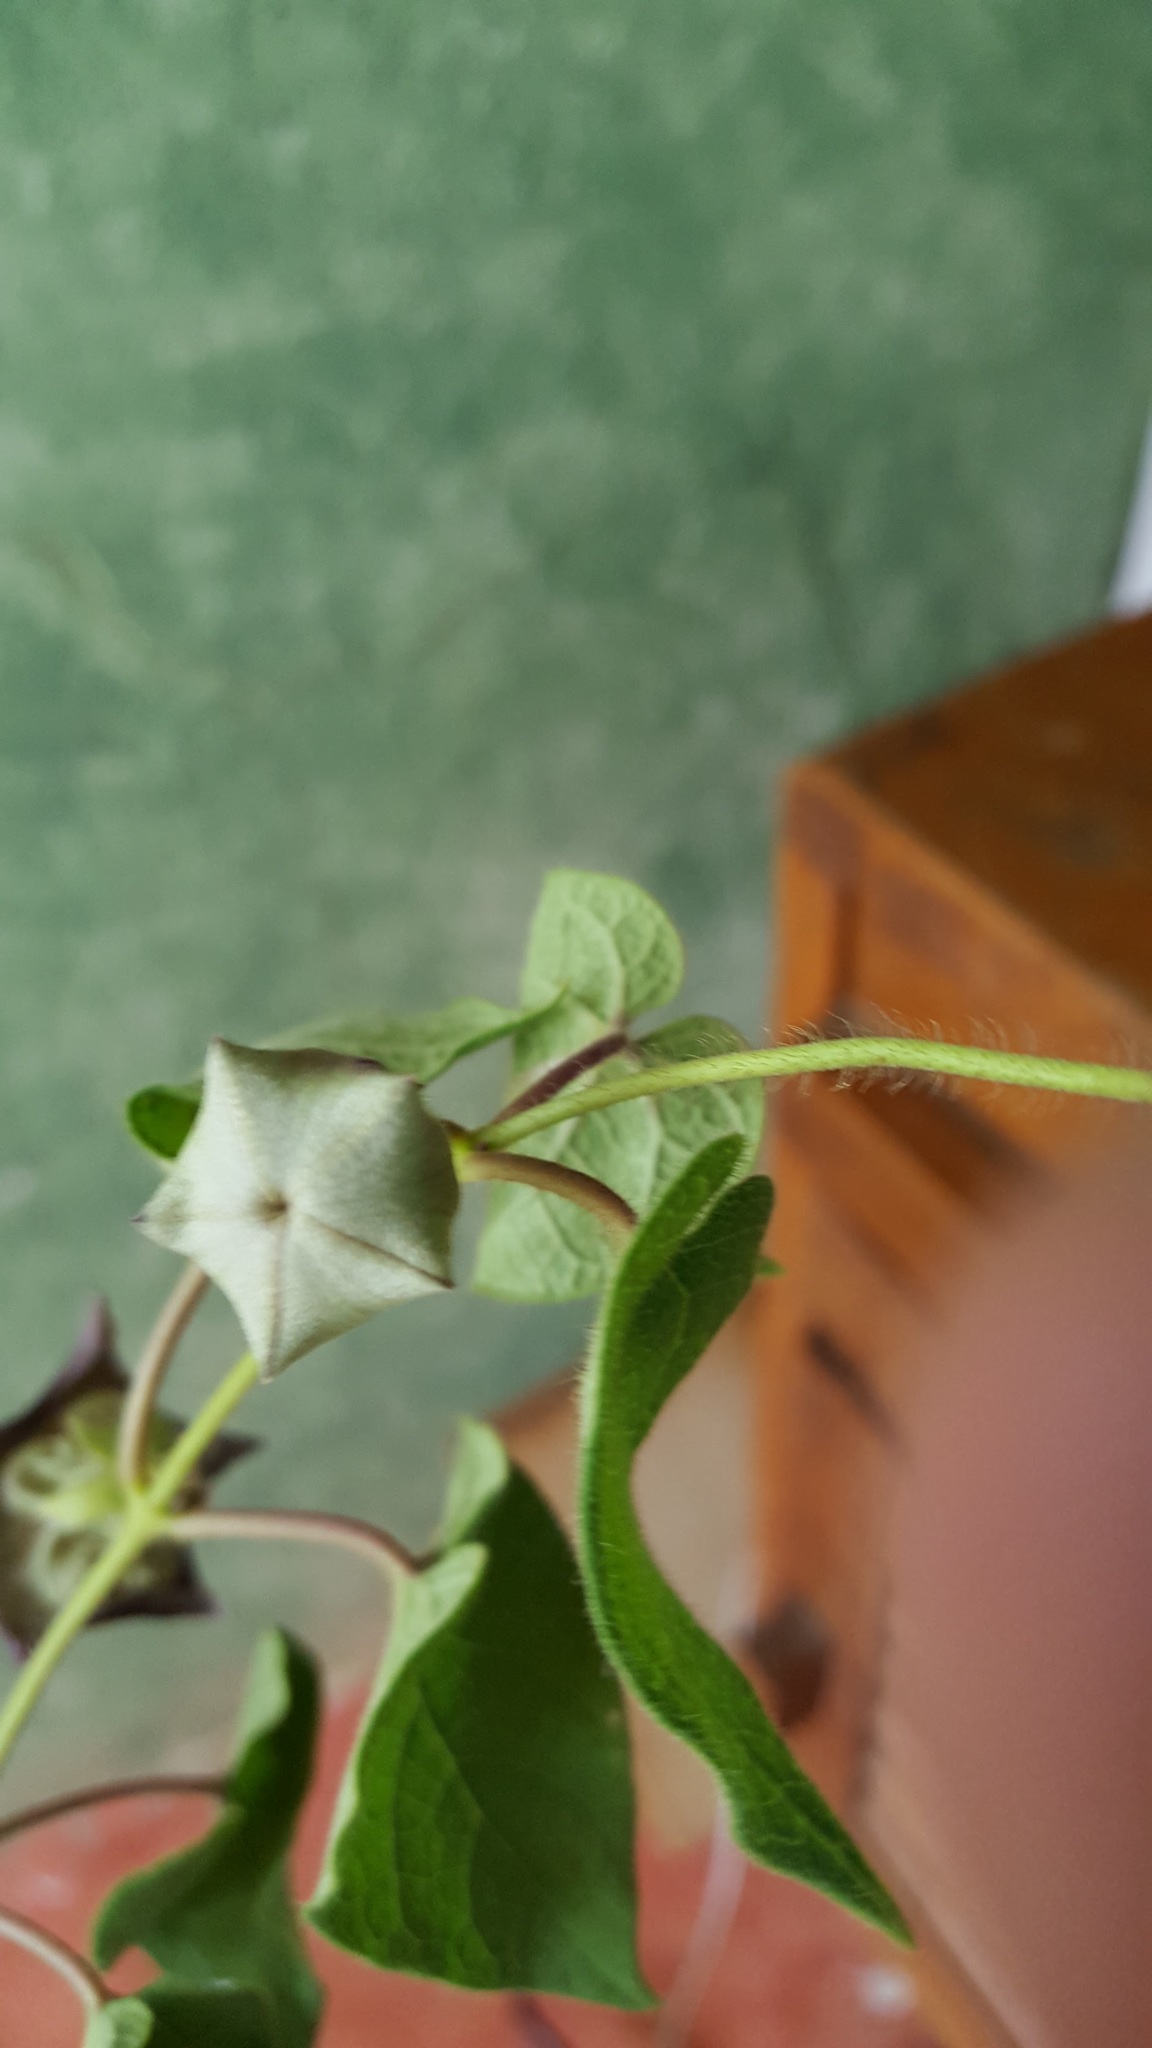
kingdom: Plantae
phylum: Tracheophyta
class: Magnoliopsida
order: Gentianales
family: Apocynaceae
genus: Dictyanthus
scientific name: Dictyanthus reticulatus
